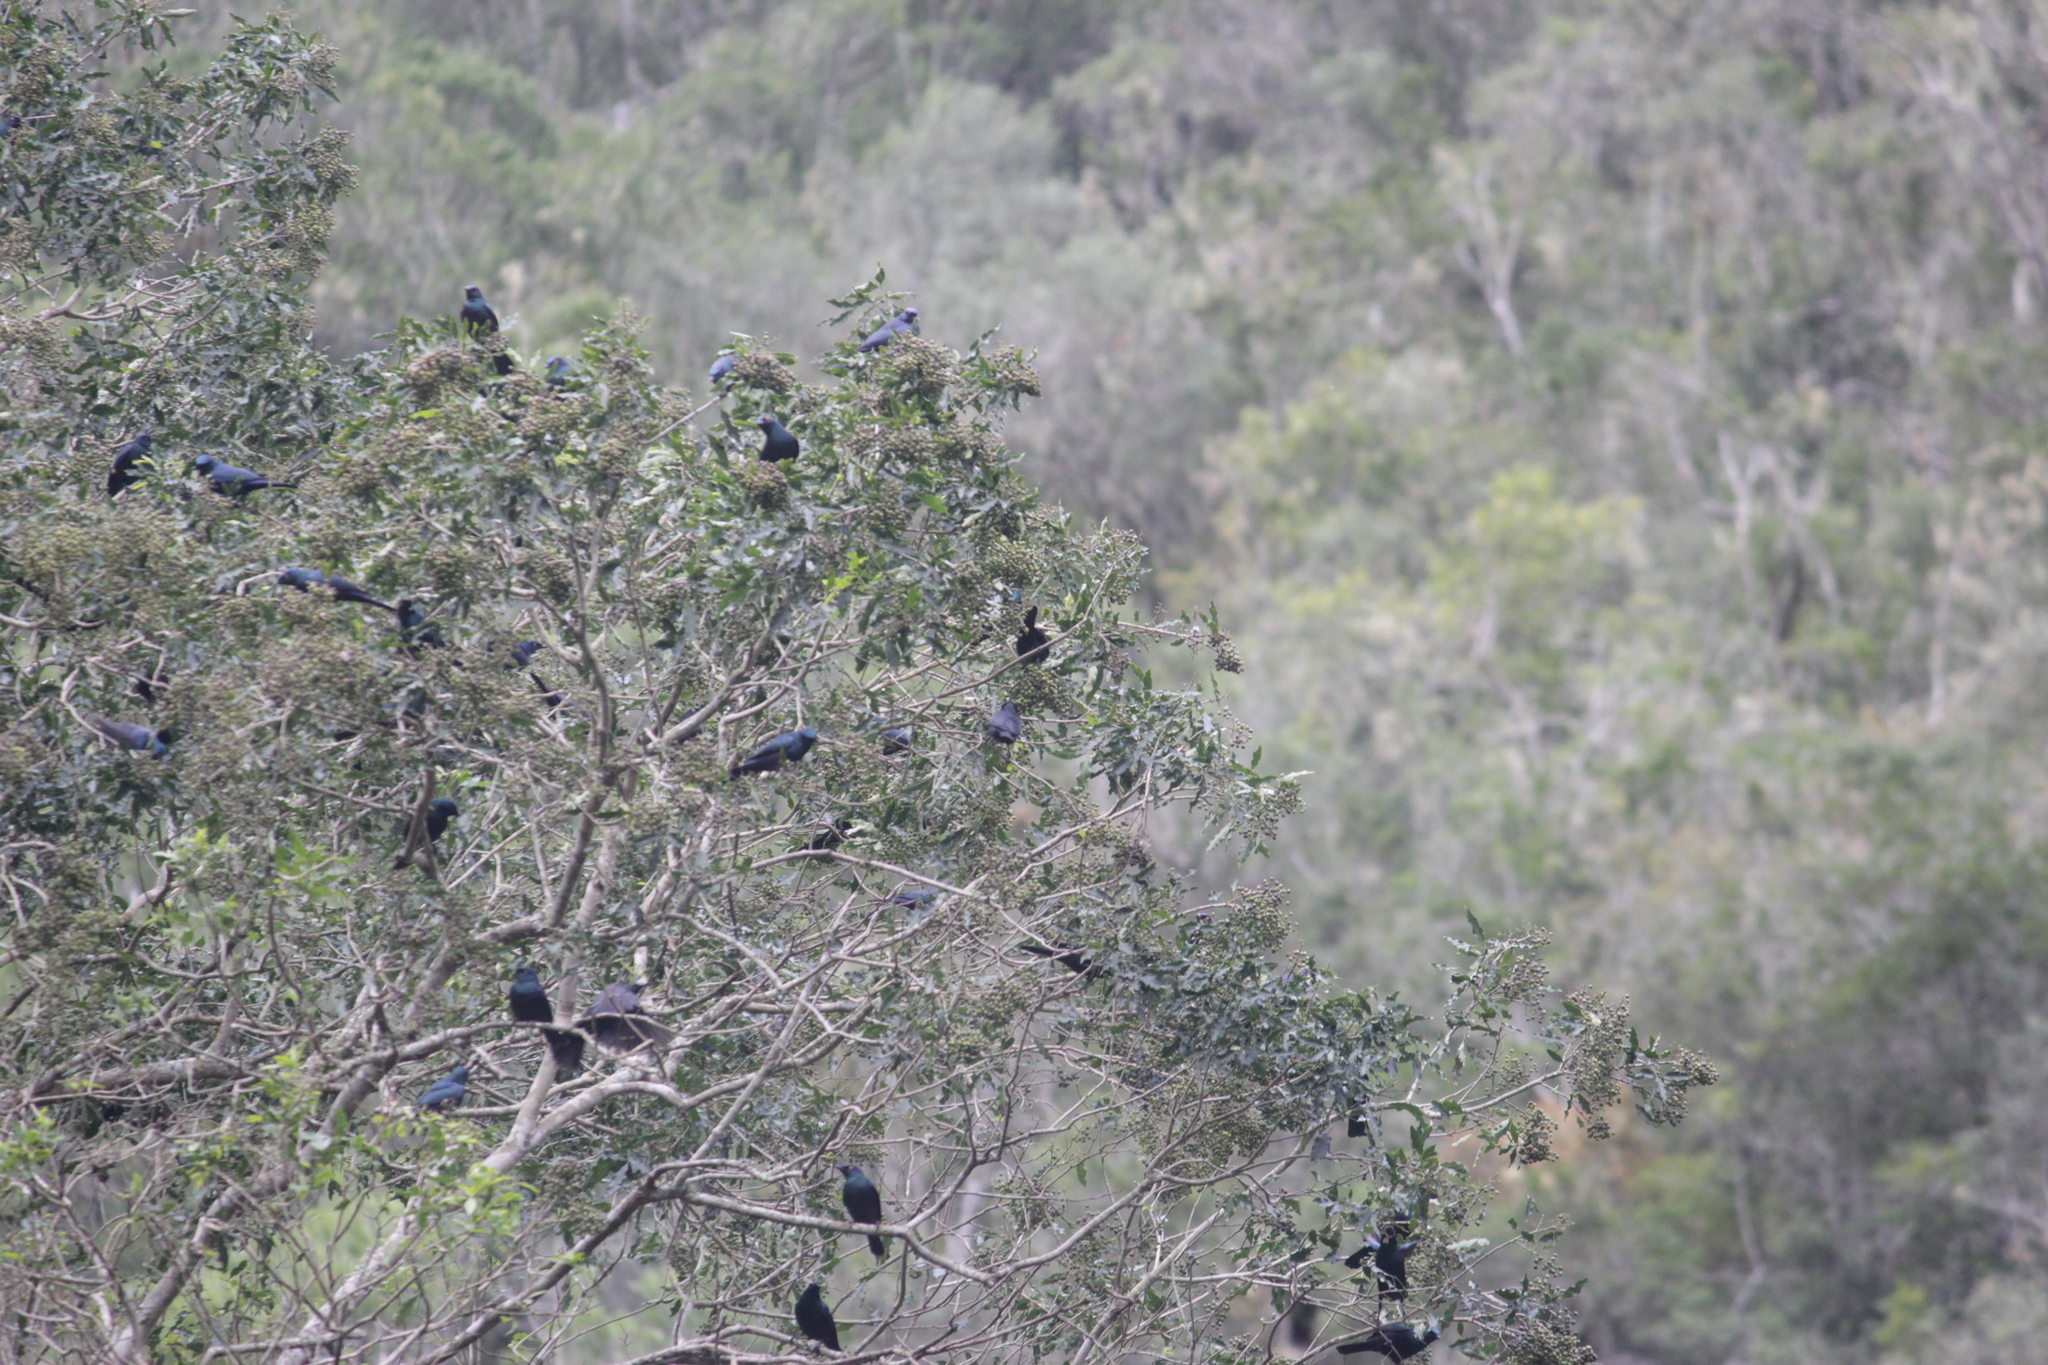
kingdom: Animalia
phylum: Chordata
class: Aves
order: Passeriformes
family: Sturnidae
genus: Notopholia
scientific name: Notopholia corrusca
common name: Black-bellied starling
